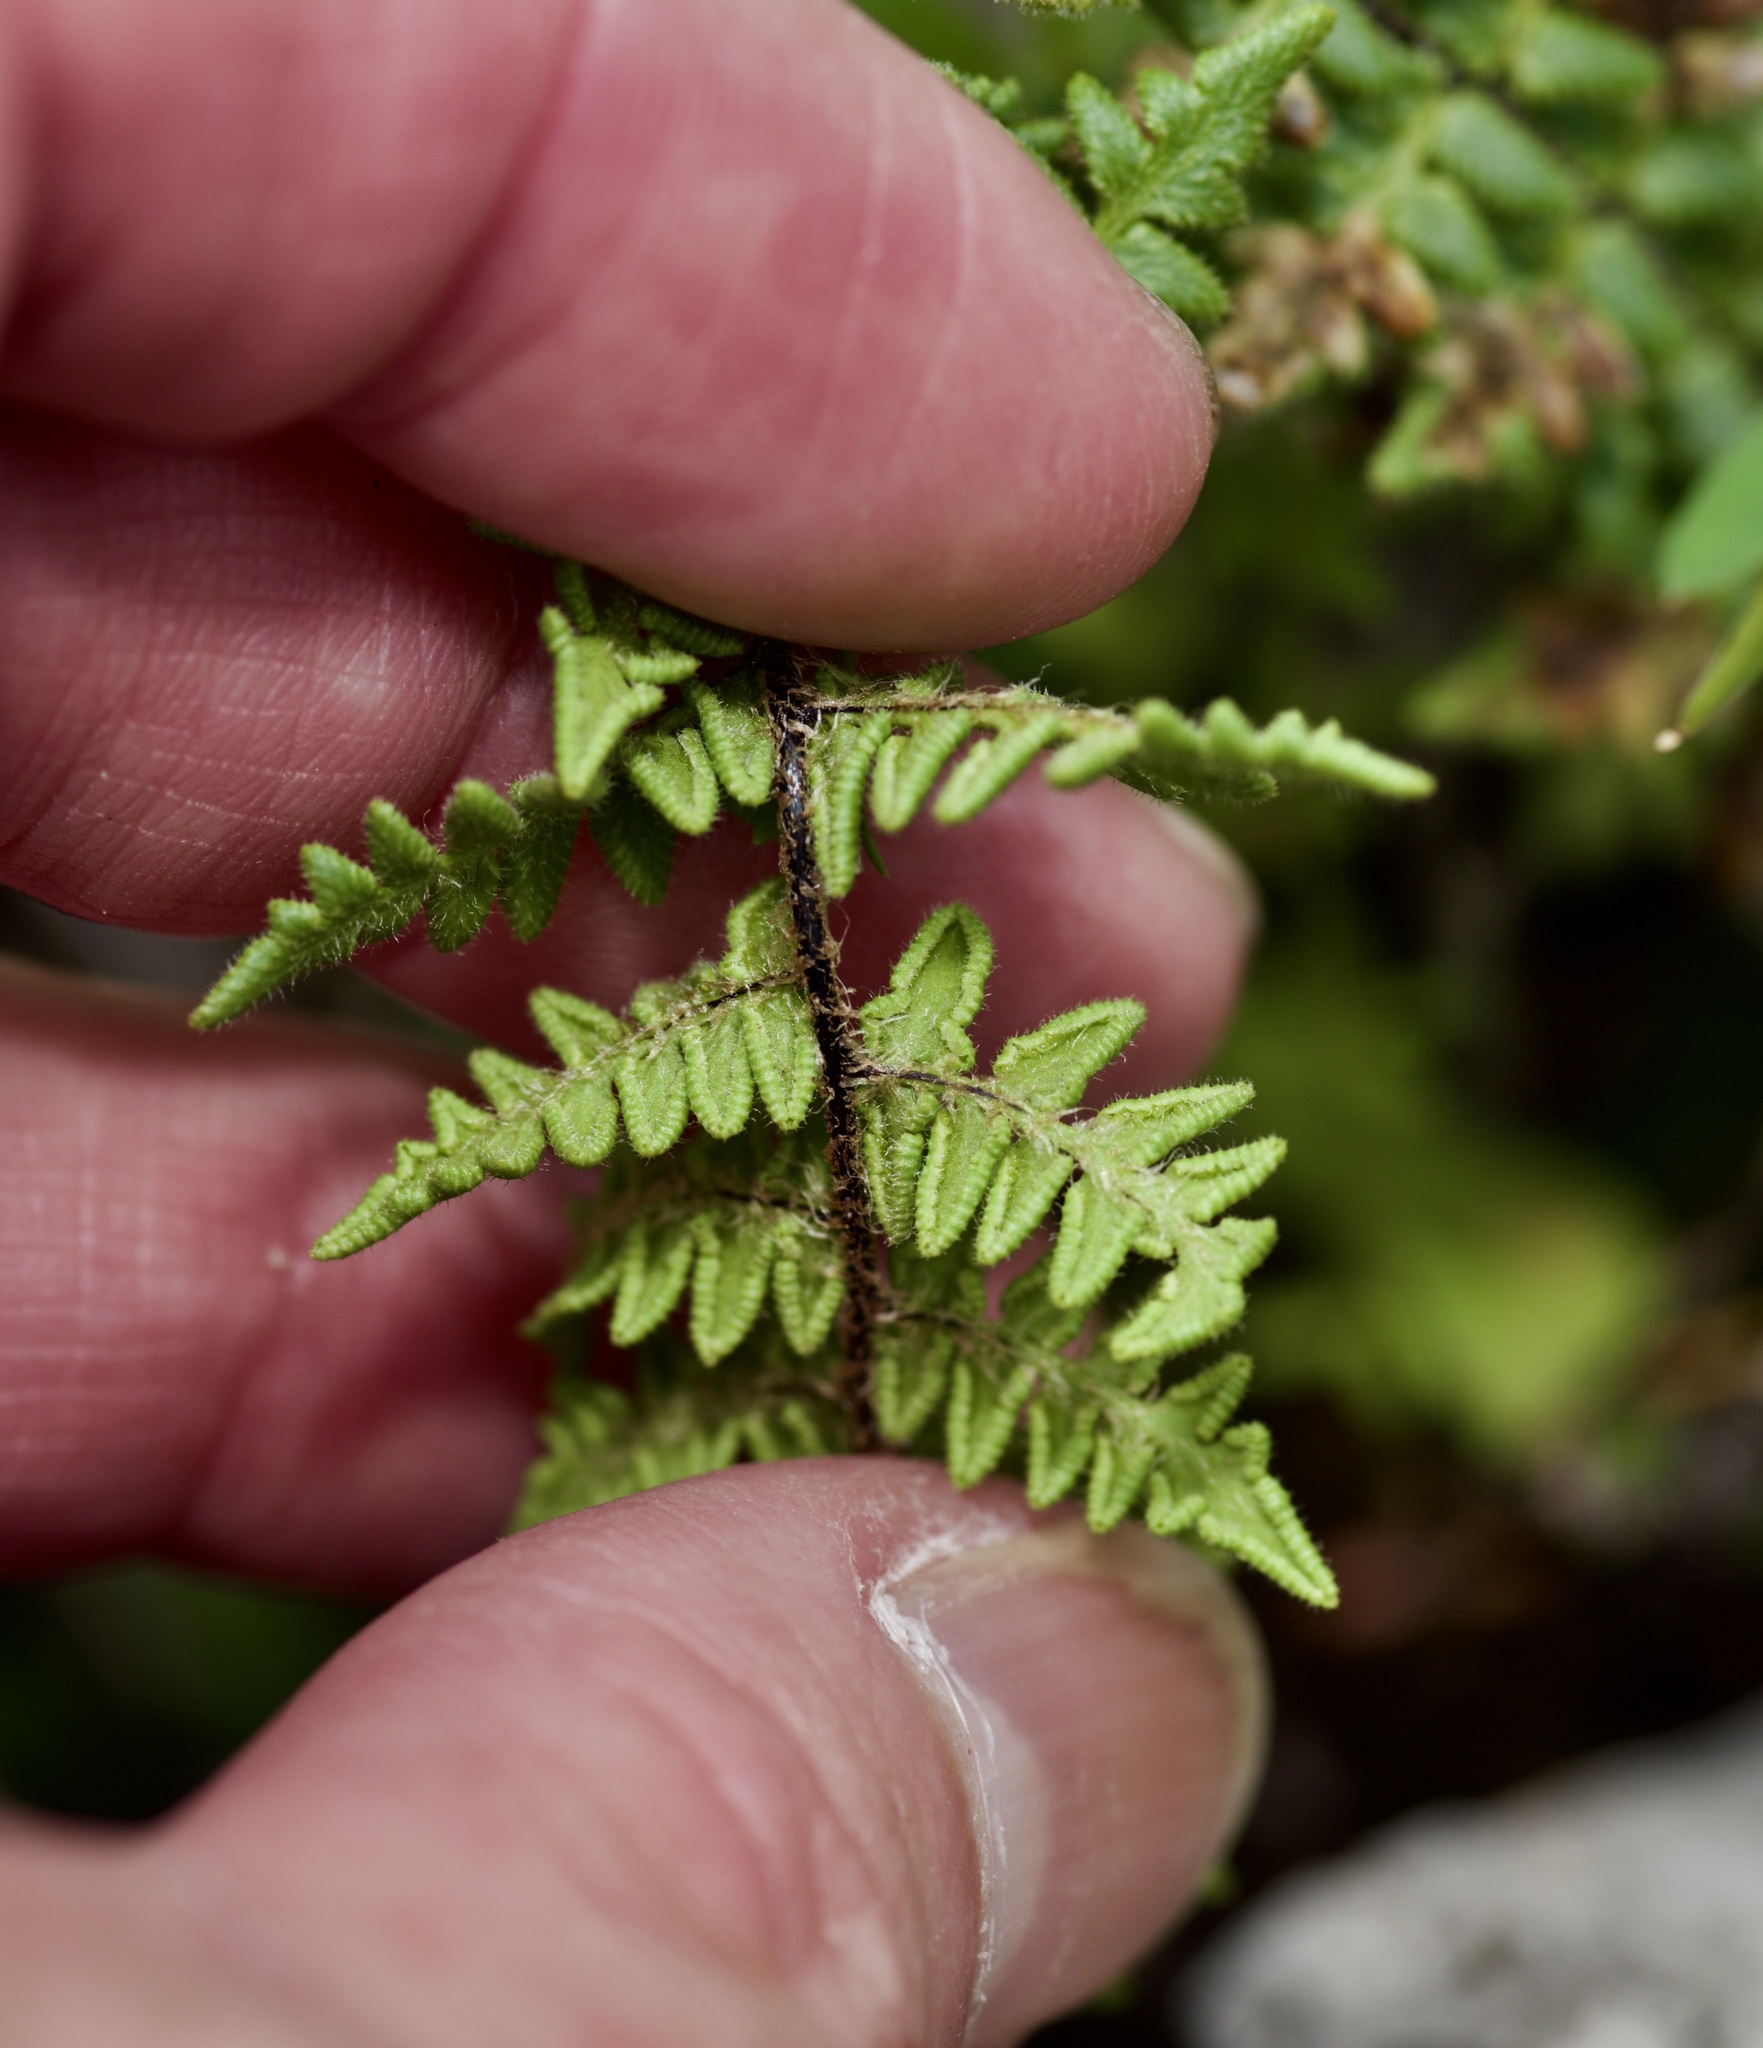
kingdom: Plantae
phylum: Tracheophyta
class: Polypodiopsida
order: Polypodiales
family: Pteridaceae
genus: Myriopteris
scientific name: Myriopteris scabra
